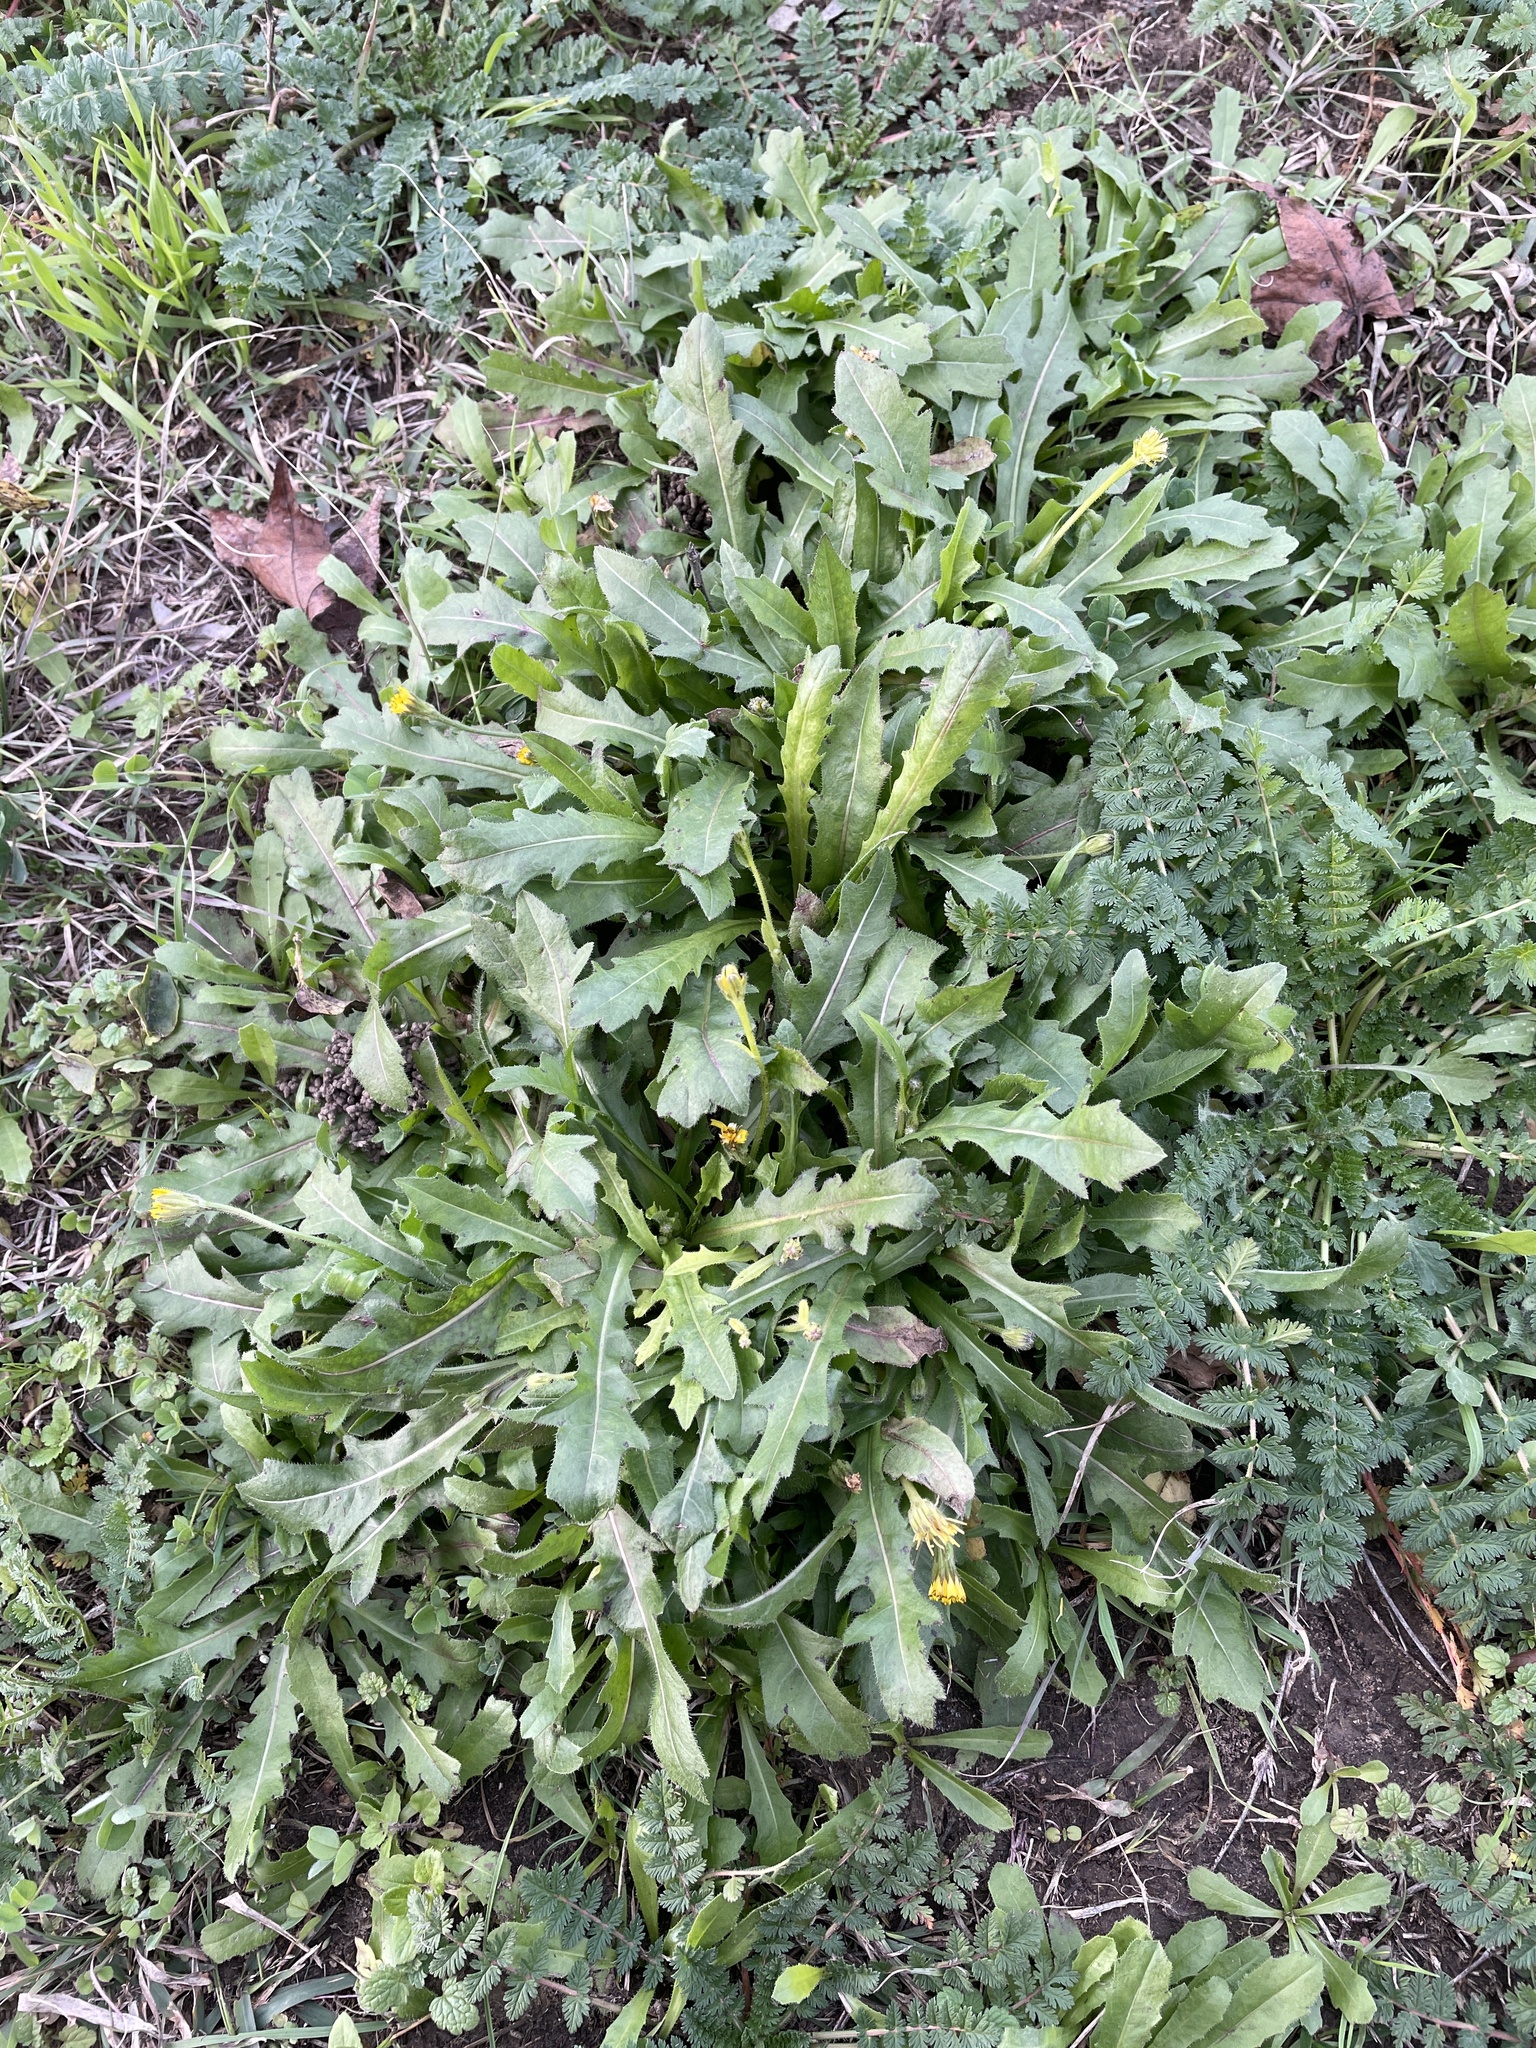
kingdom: Plantae
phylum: Tracheophyta
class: Magnoliopsida
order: Asterales
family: Asteraceae
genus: Hedypnois
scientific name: Hedypnois rhagadioloides
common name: Cretan weed
